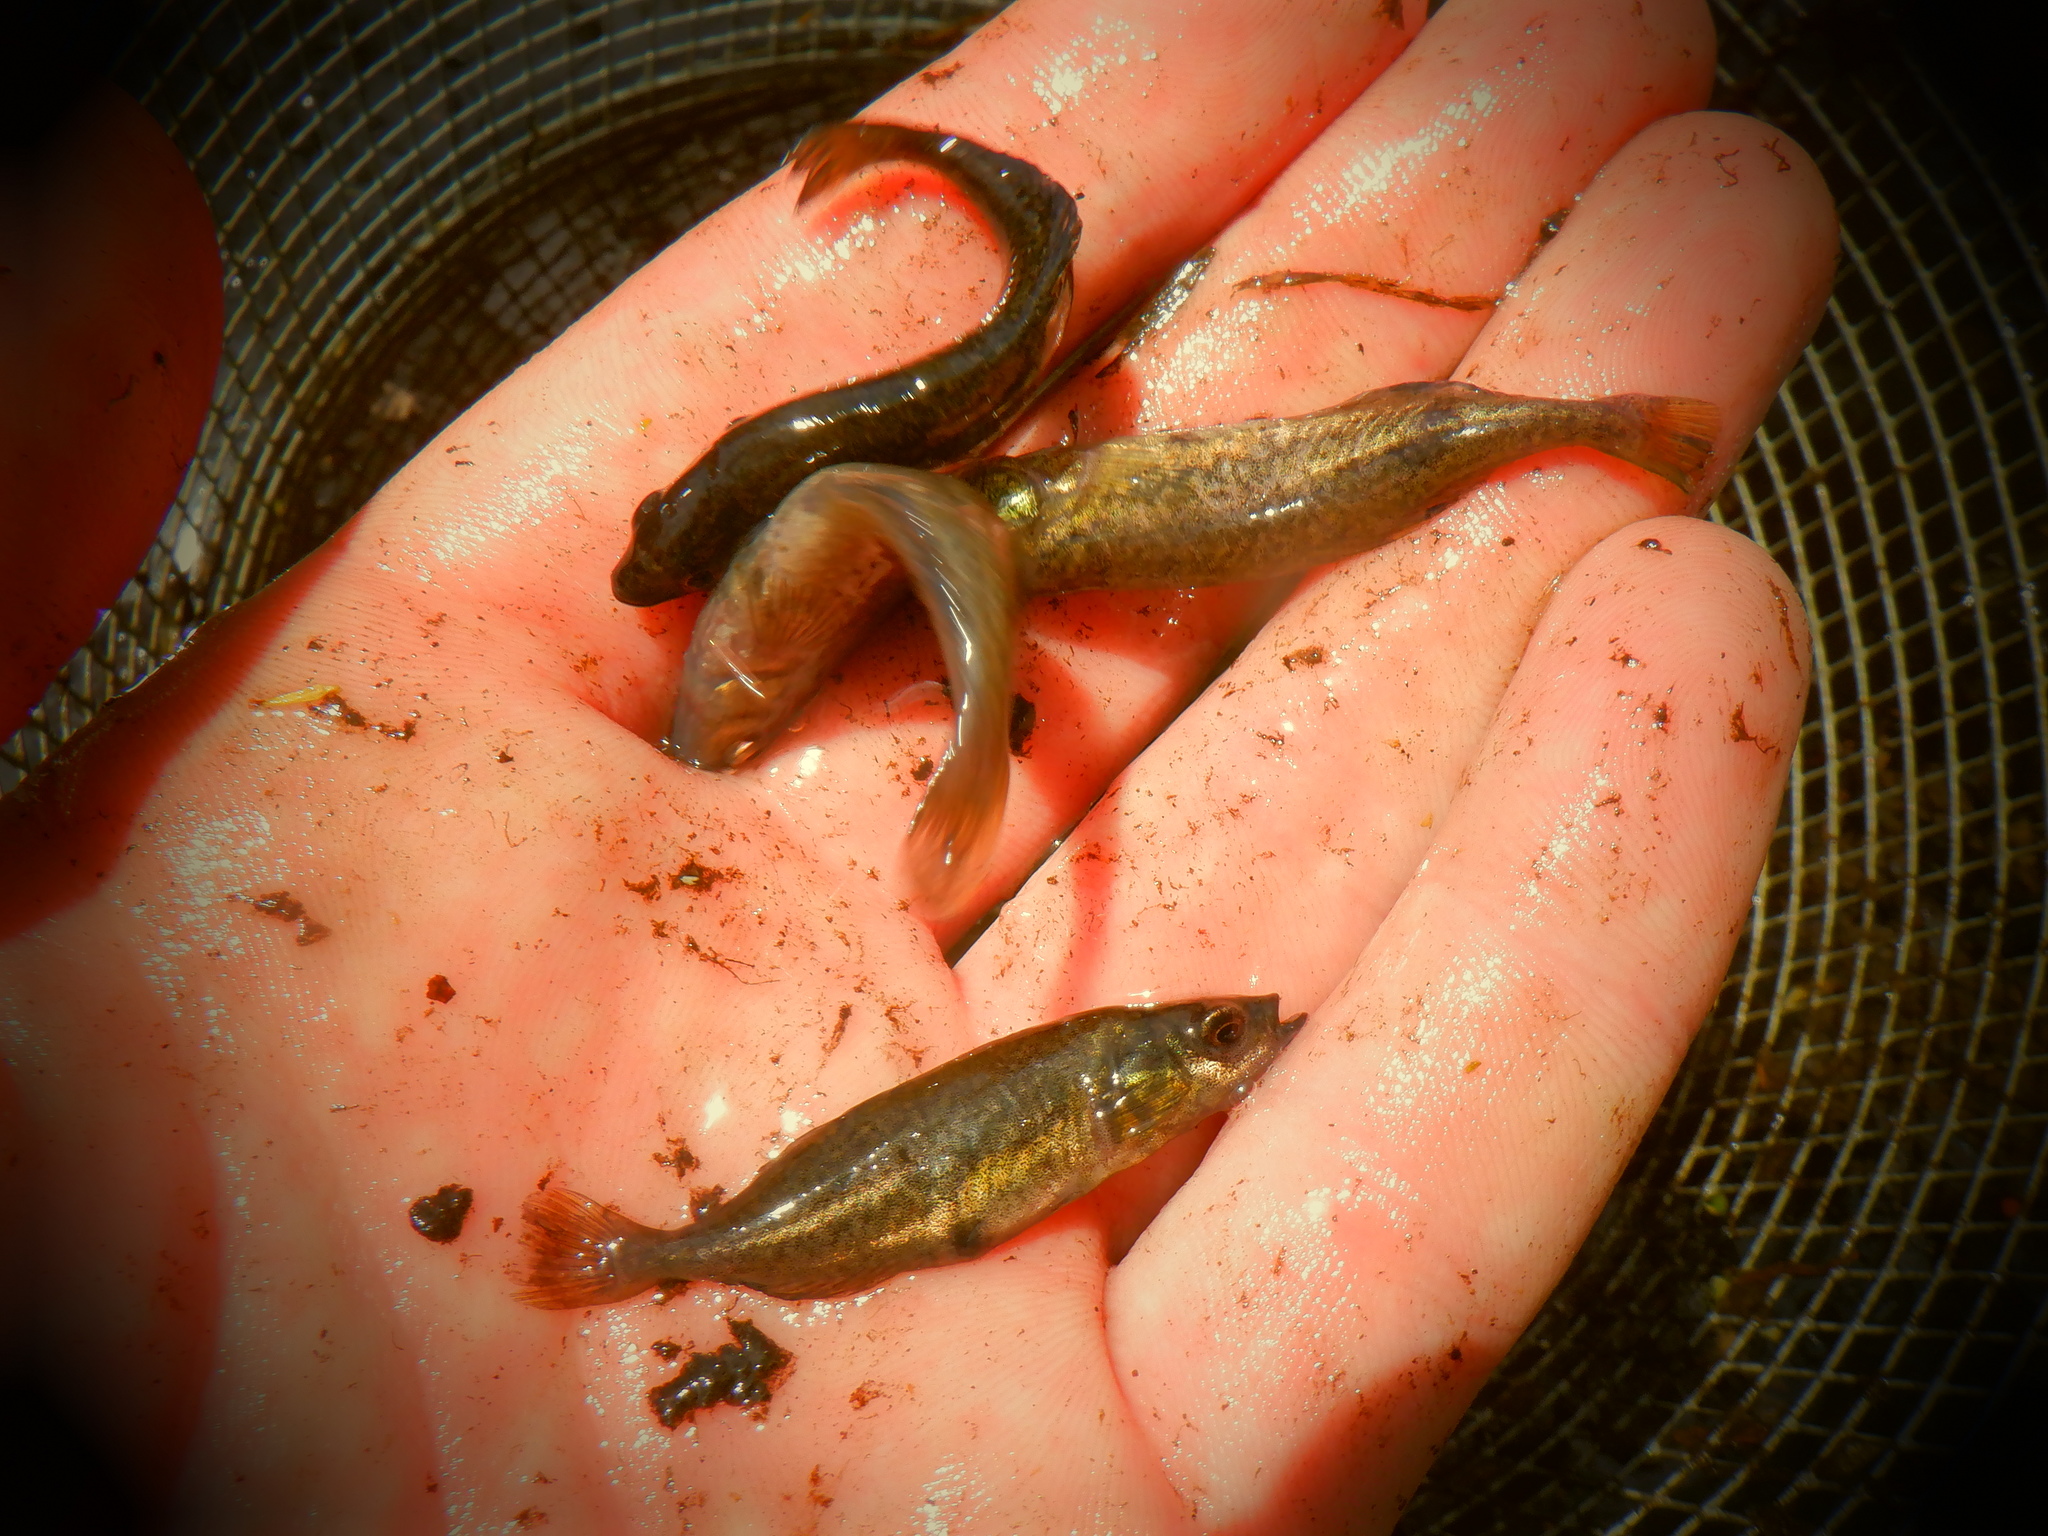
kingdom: Animalia
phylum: Chordata
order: Gasterosteiformes
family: Gasterosteidae
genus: Culaea
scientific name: Culaea inconstans
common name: Brook stickleback
